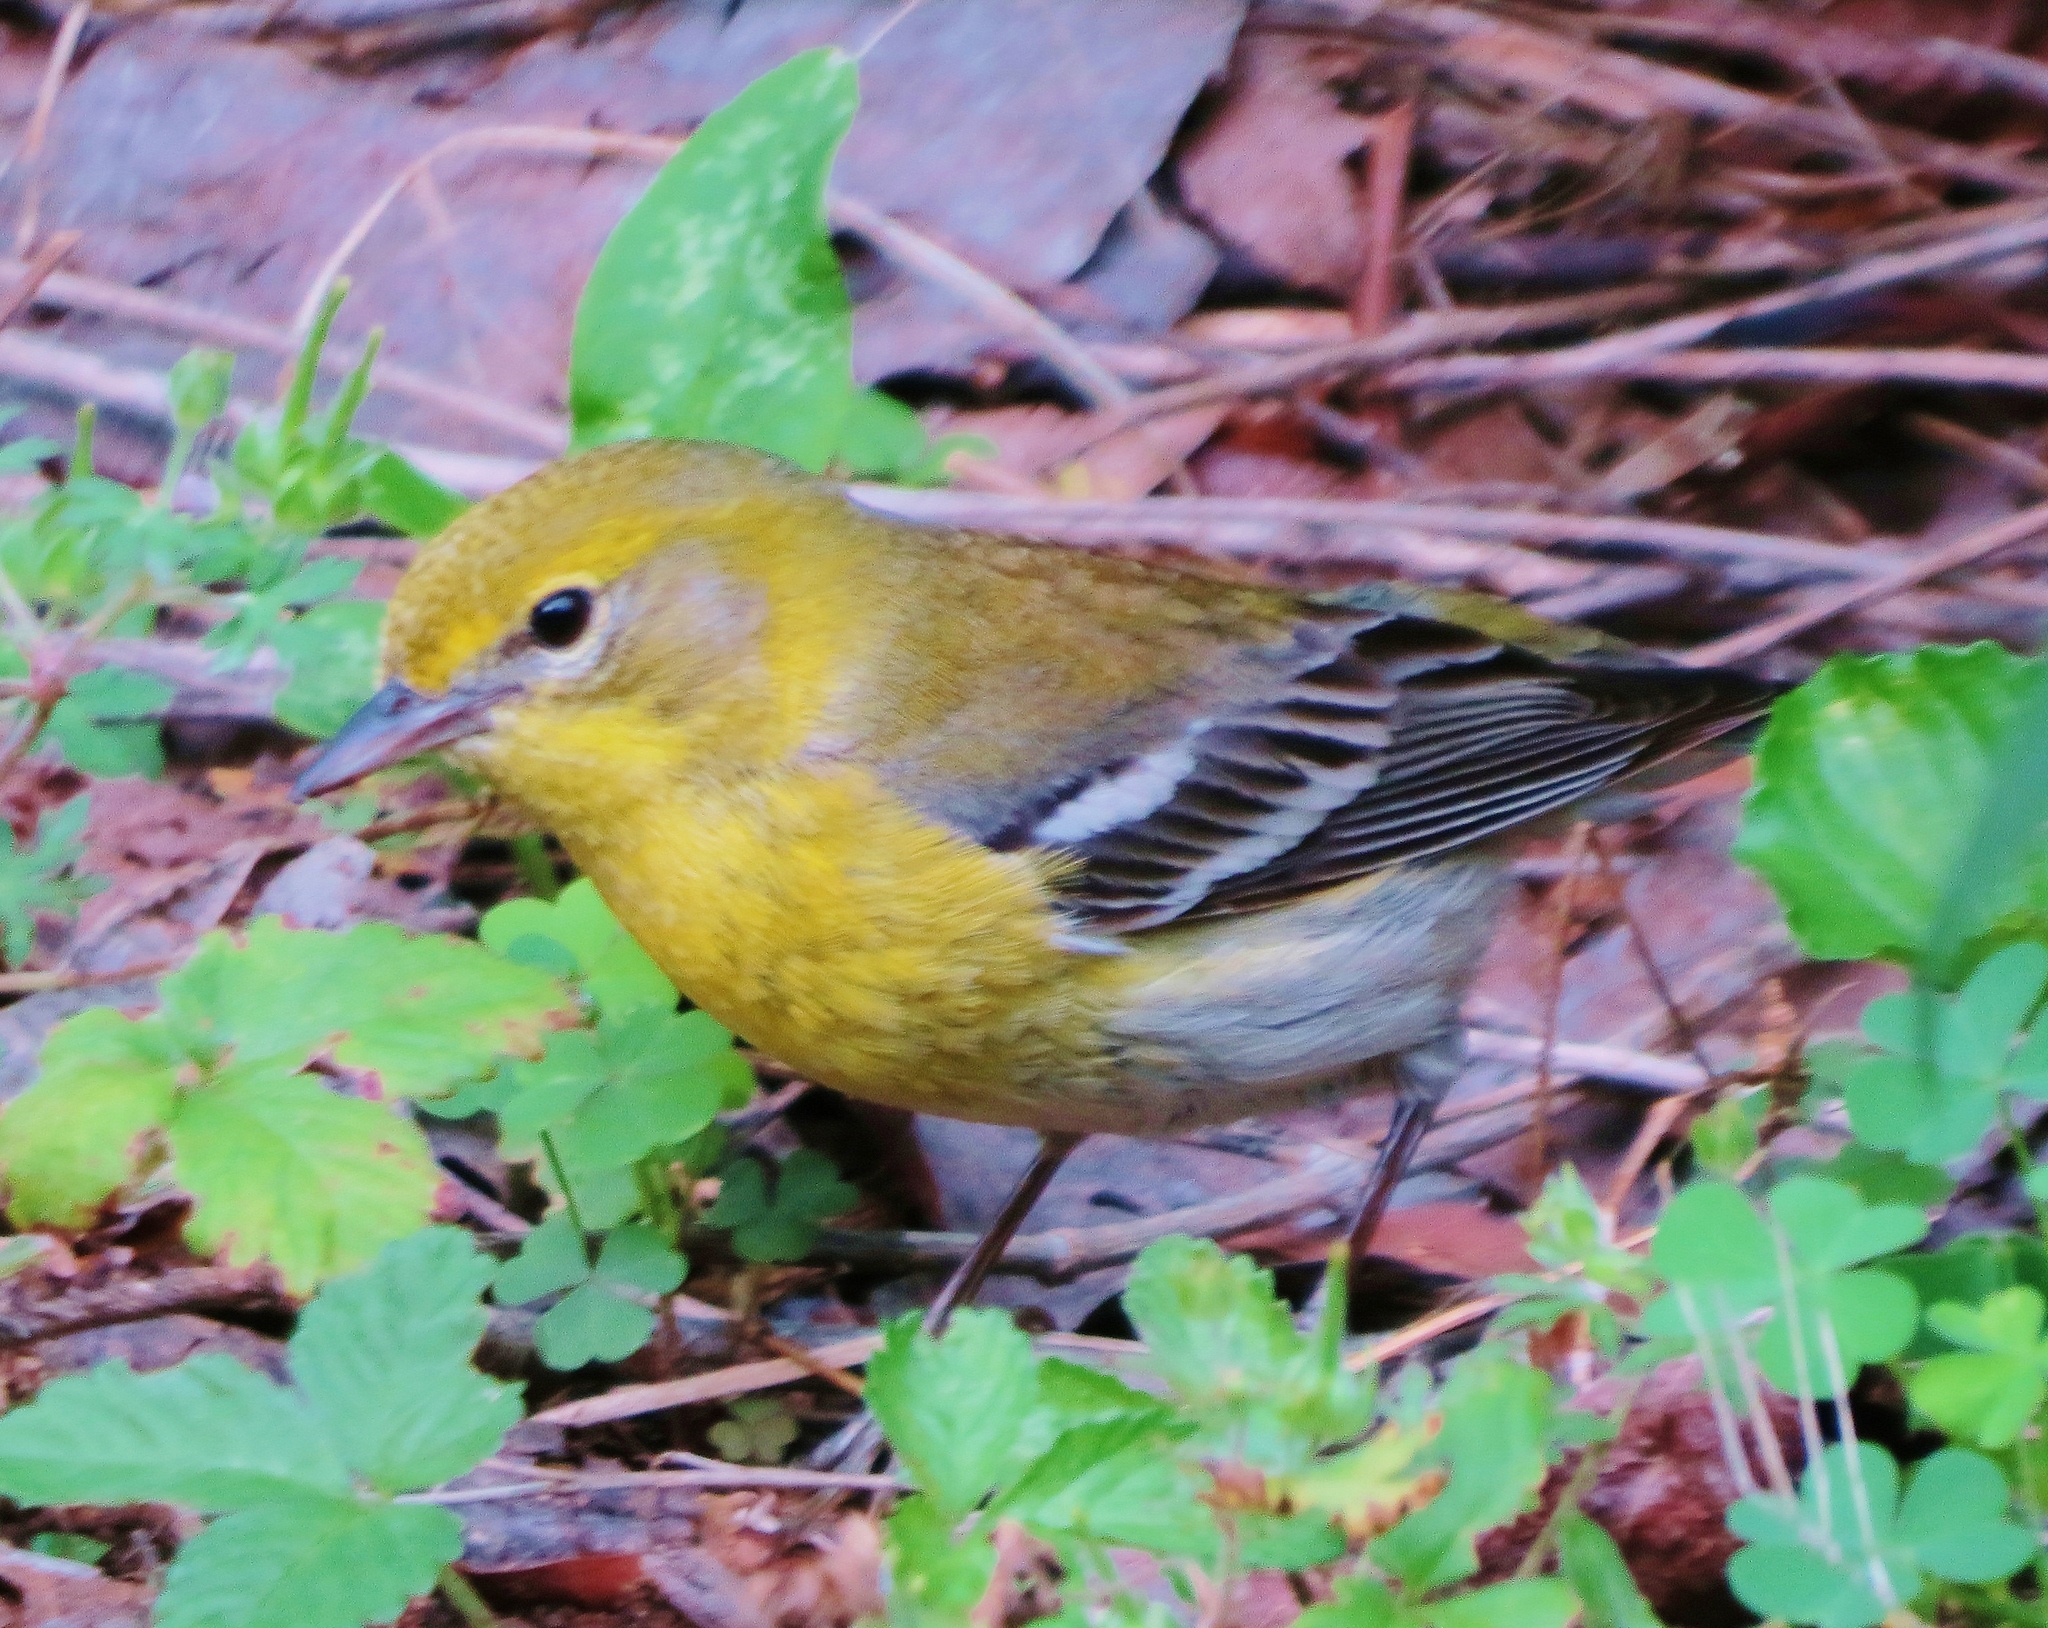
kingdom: Animalia
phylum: Chordata
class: Aves
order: Passeriformes
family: Parulidae
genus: Setophaga
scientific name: Setophaga pinus
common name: Pine warbler
